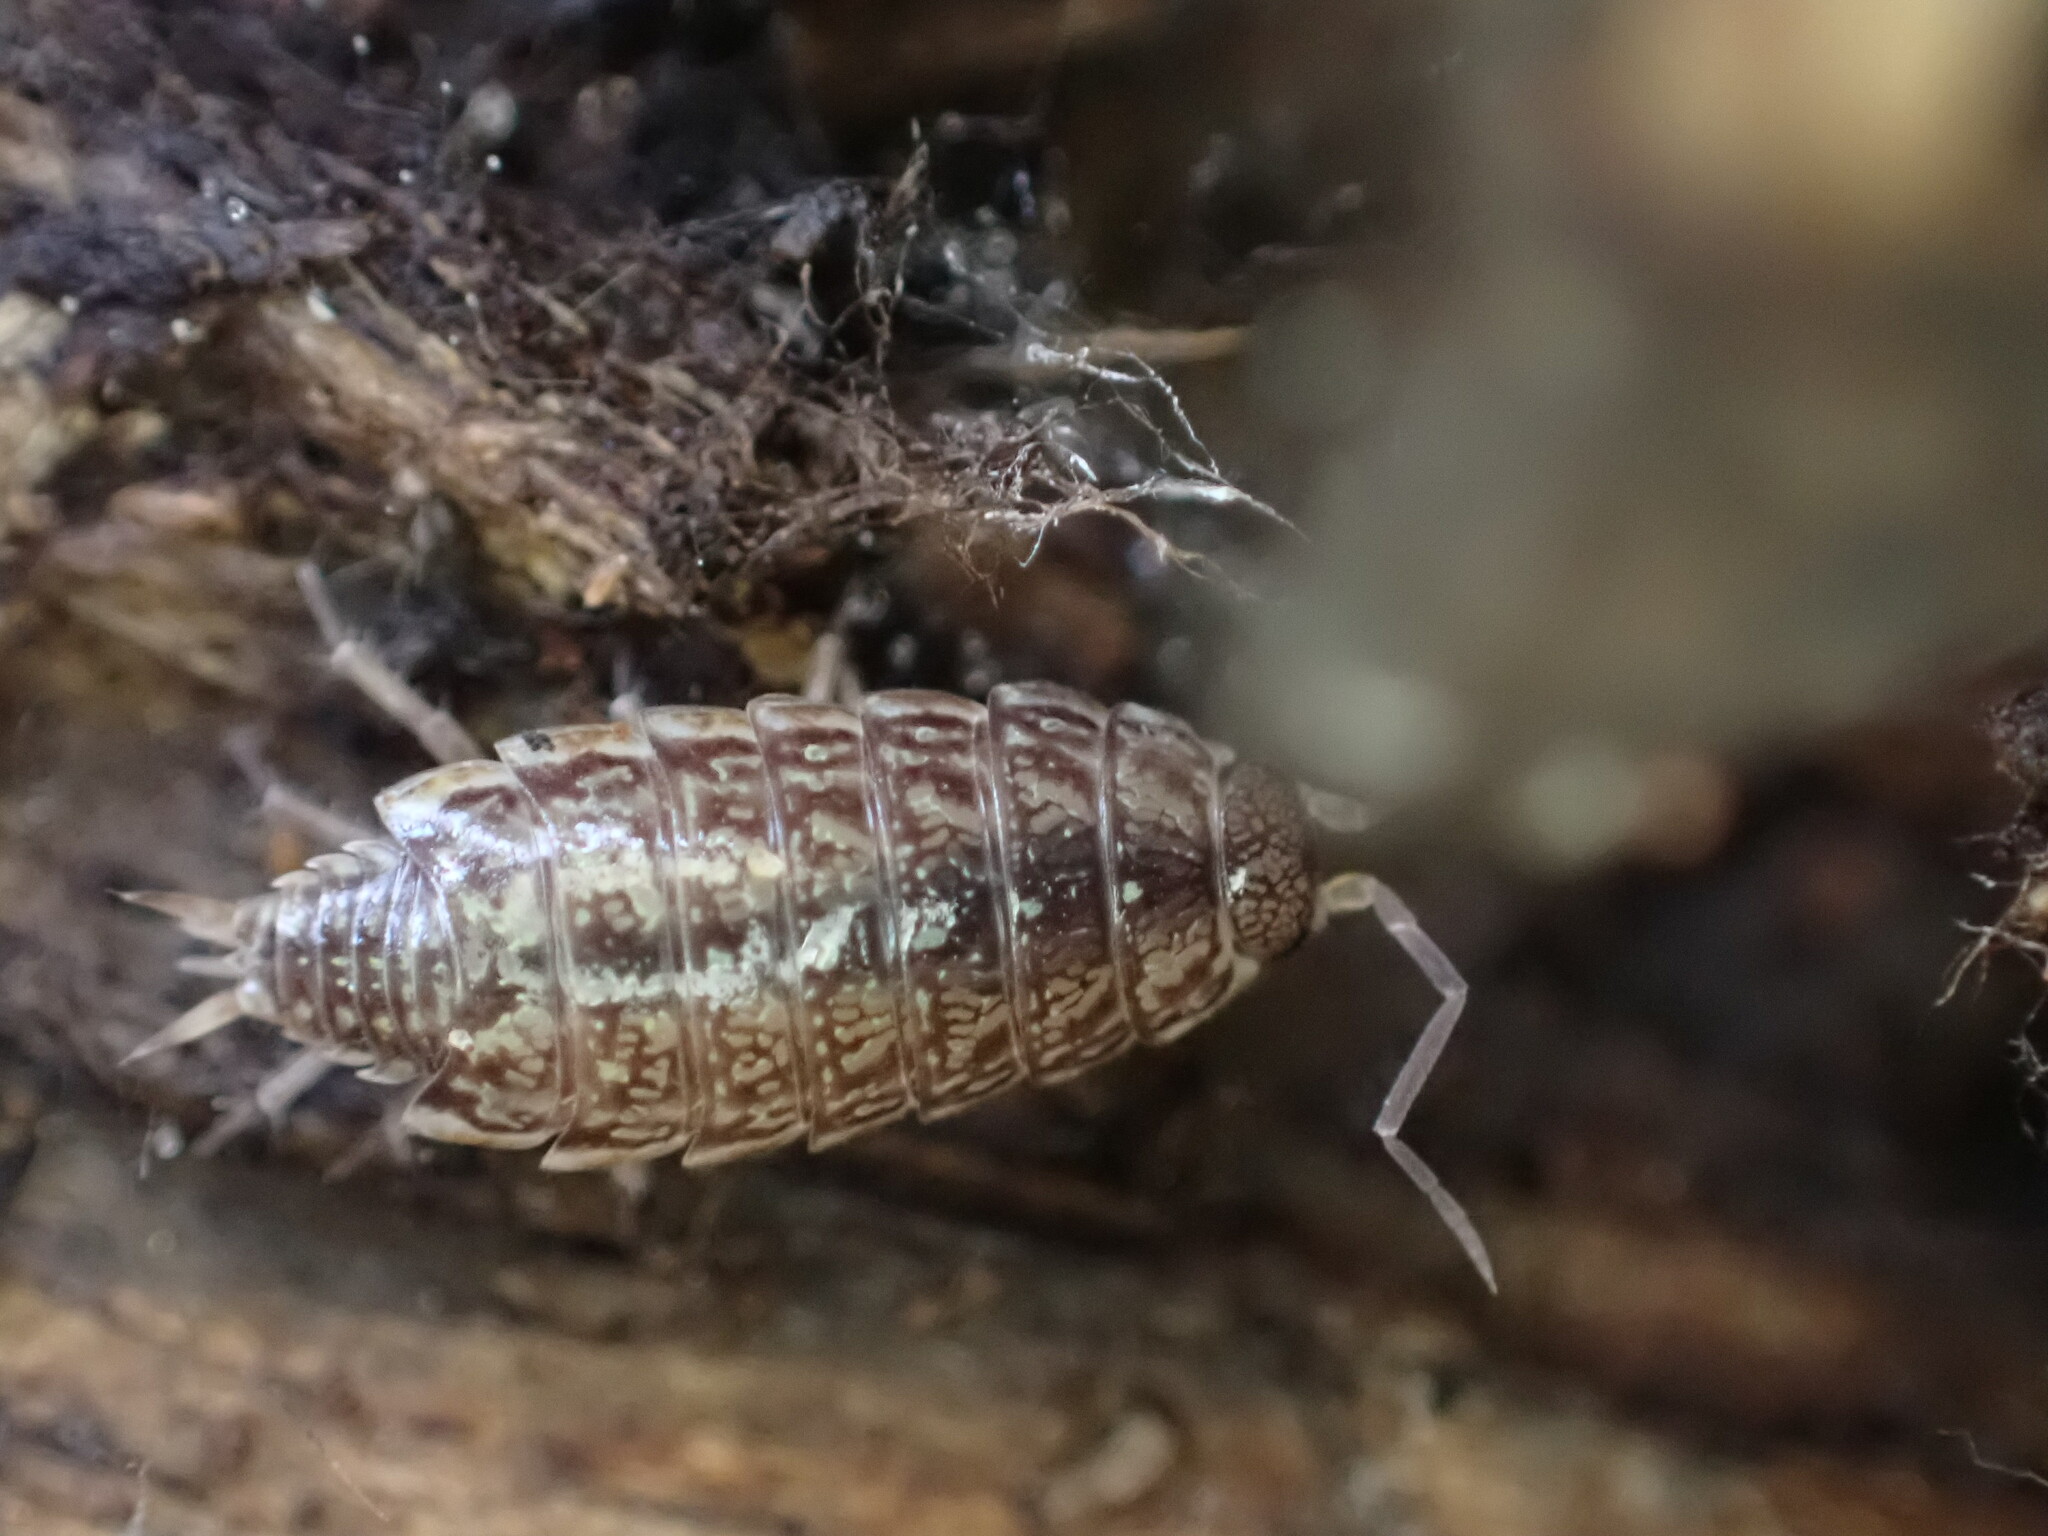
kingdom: Animalia
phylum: Arthropoda
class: Malacostraca
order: Isopoda
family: Philosciidae
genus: Philoscia
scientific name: Philoscia muscorum
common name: Common striped woodlouse
